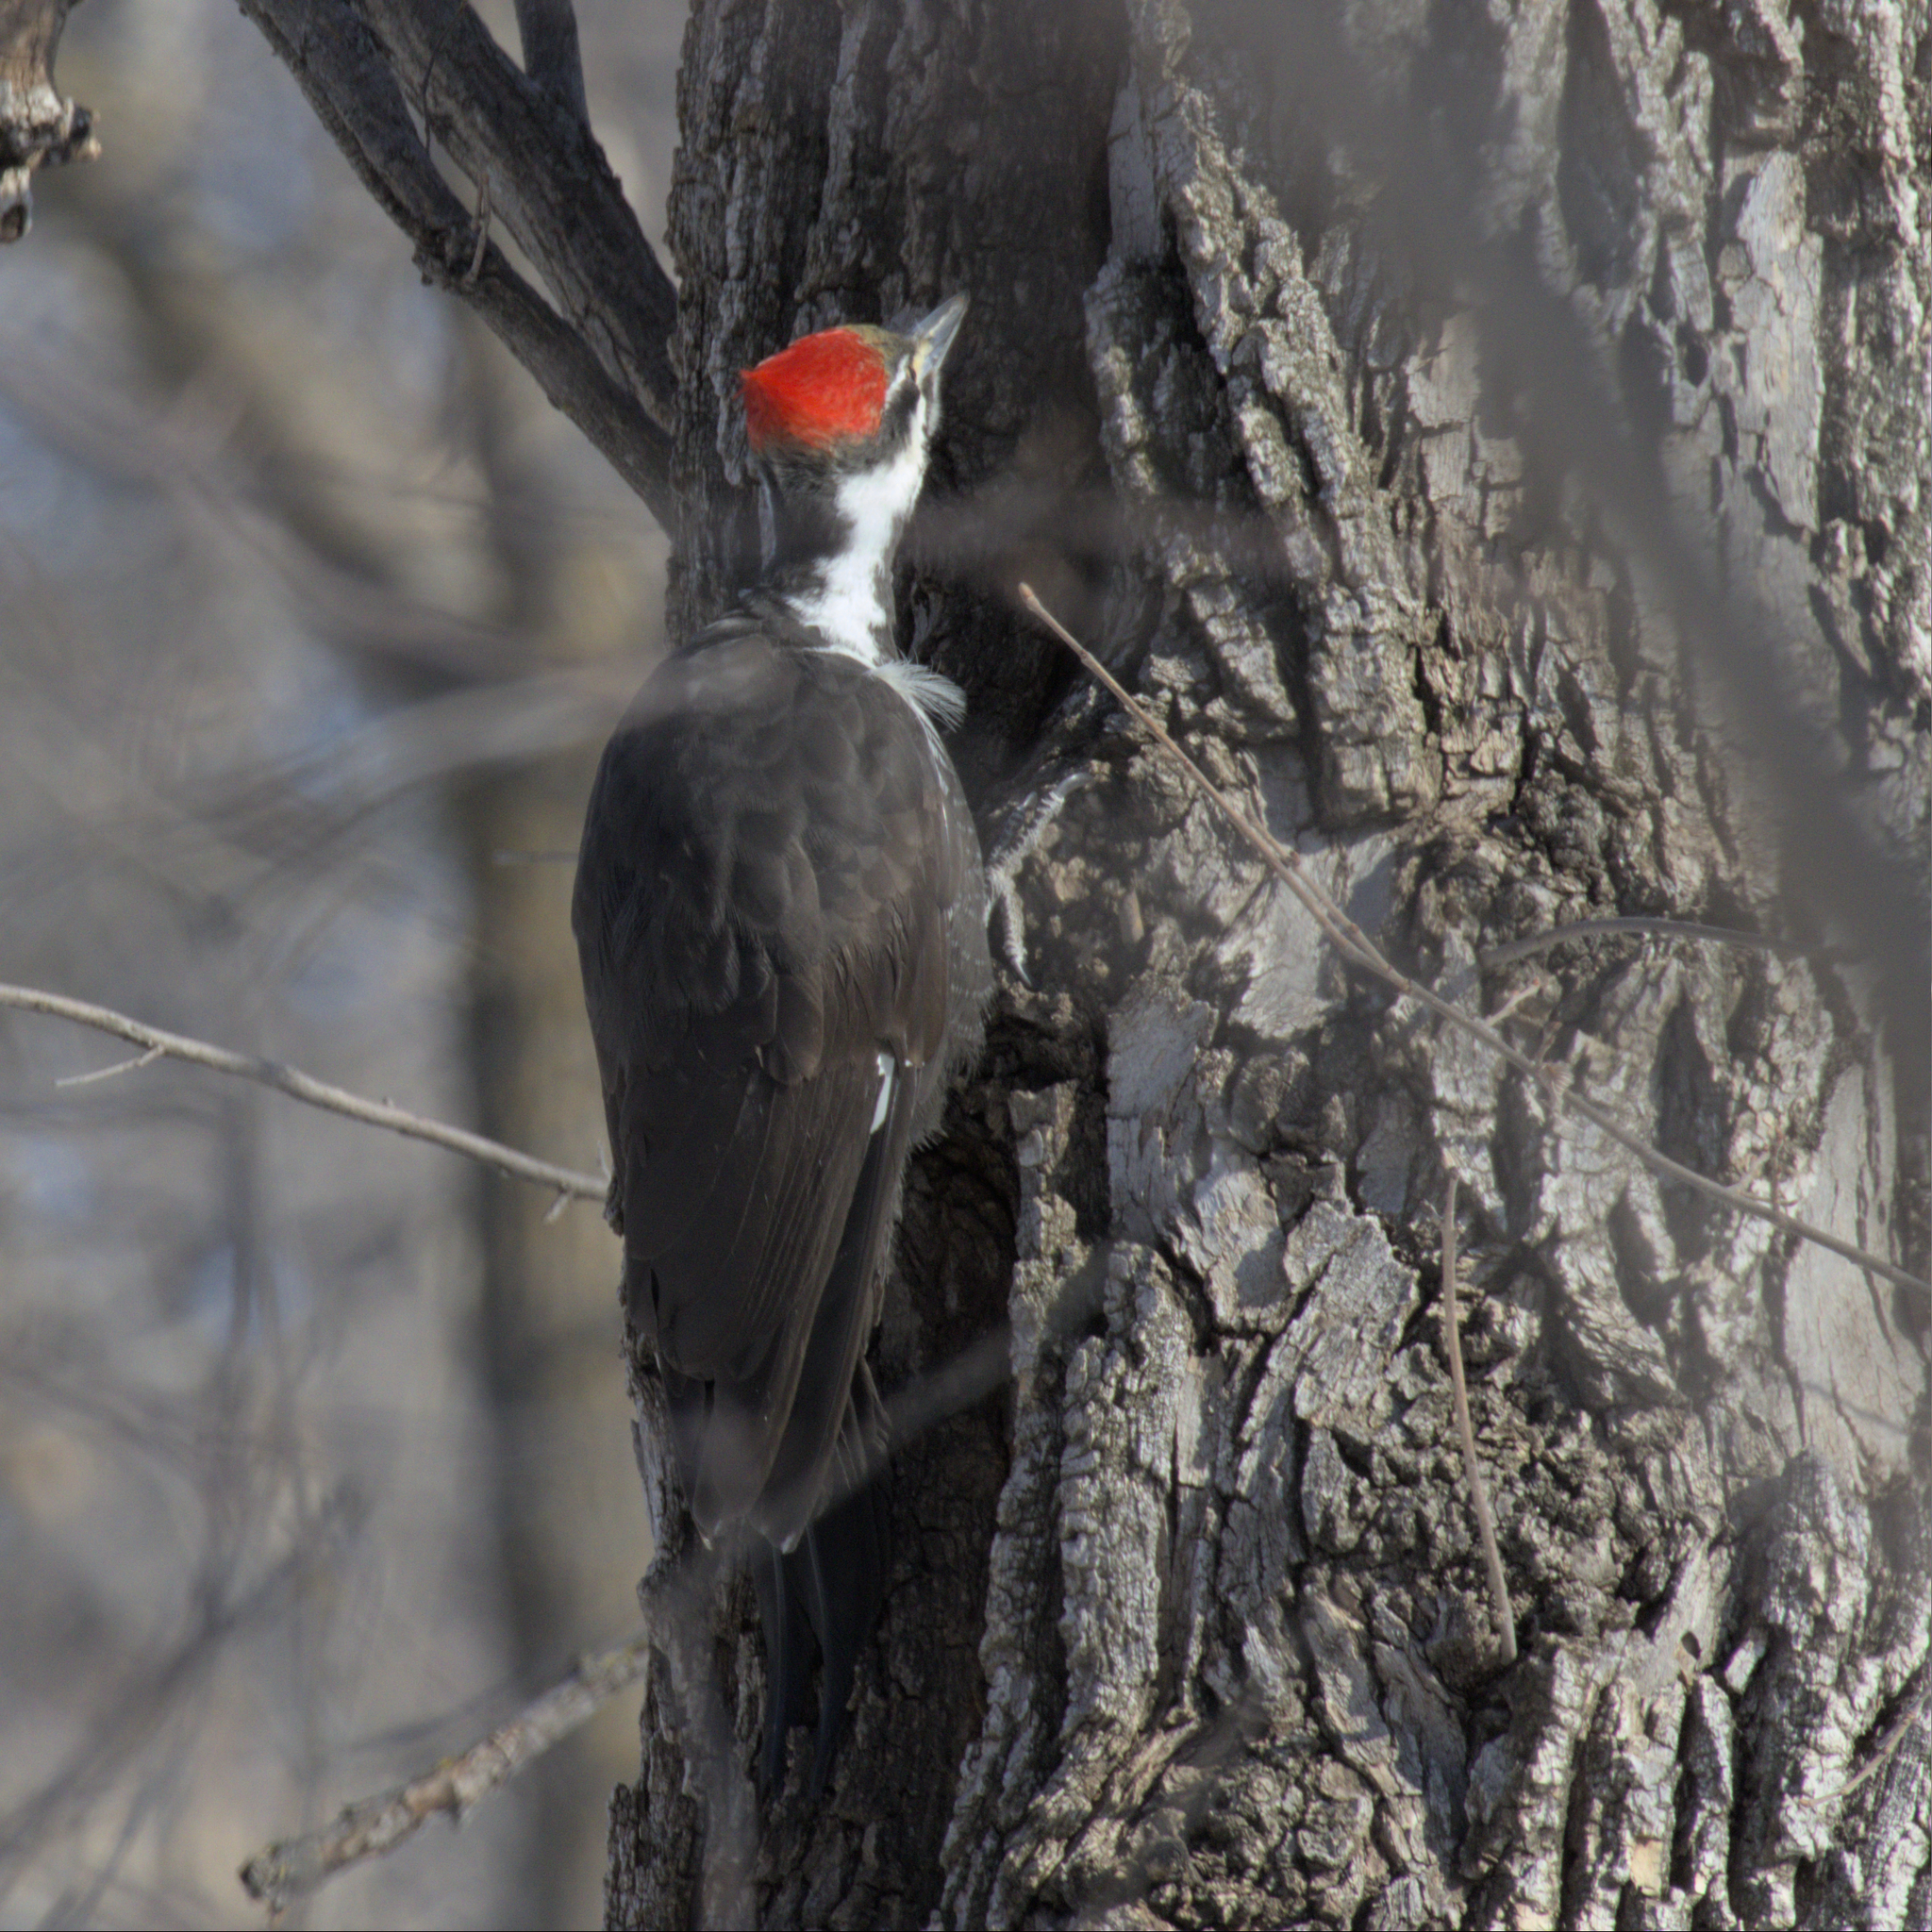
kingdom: Animalia
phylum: Chordata
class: Aves
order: Piciformes
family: Picidae
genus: Dryocopus
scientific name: Dryocopus pileatus
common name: Pileated woodpecker
